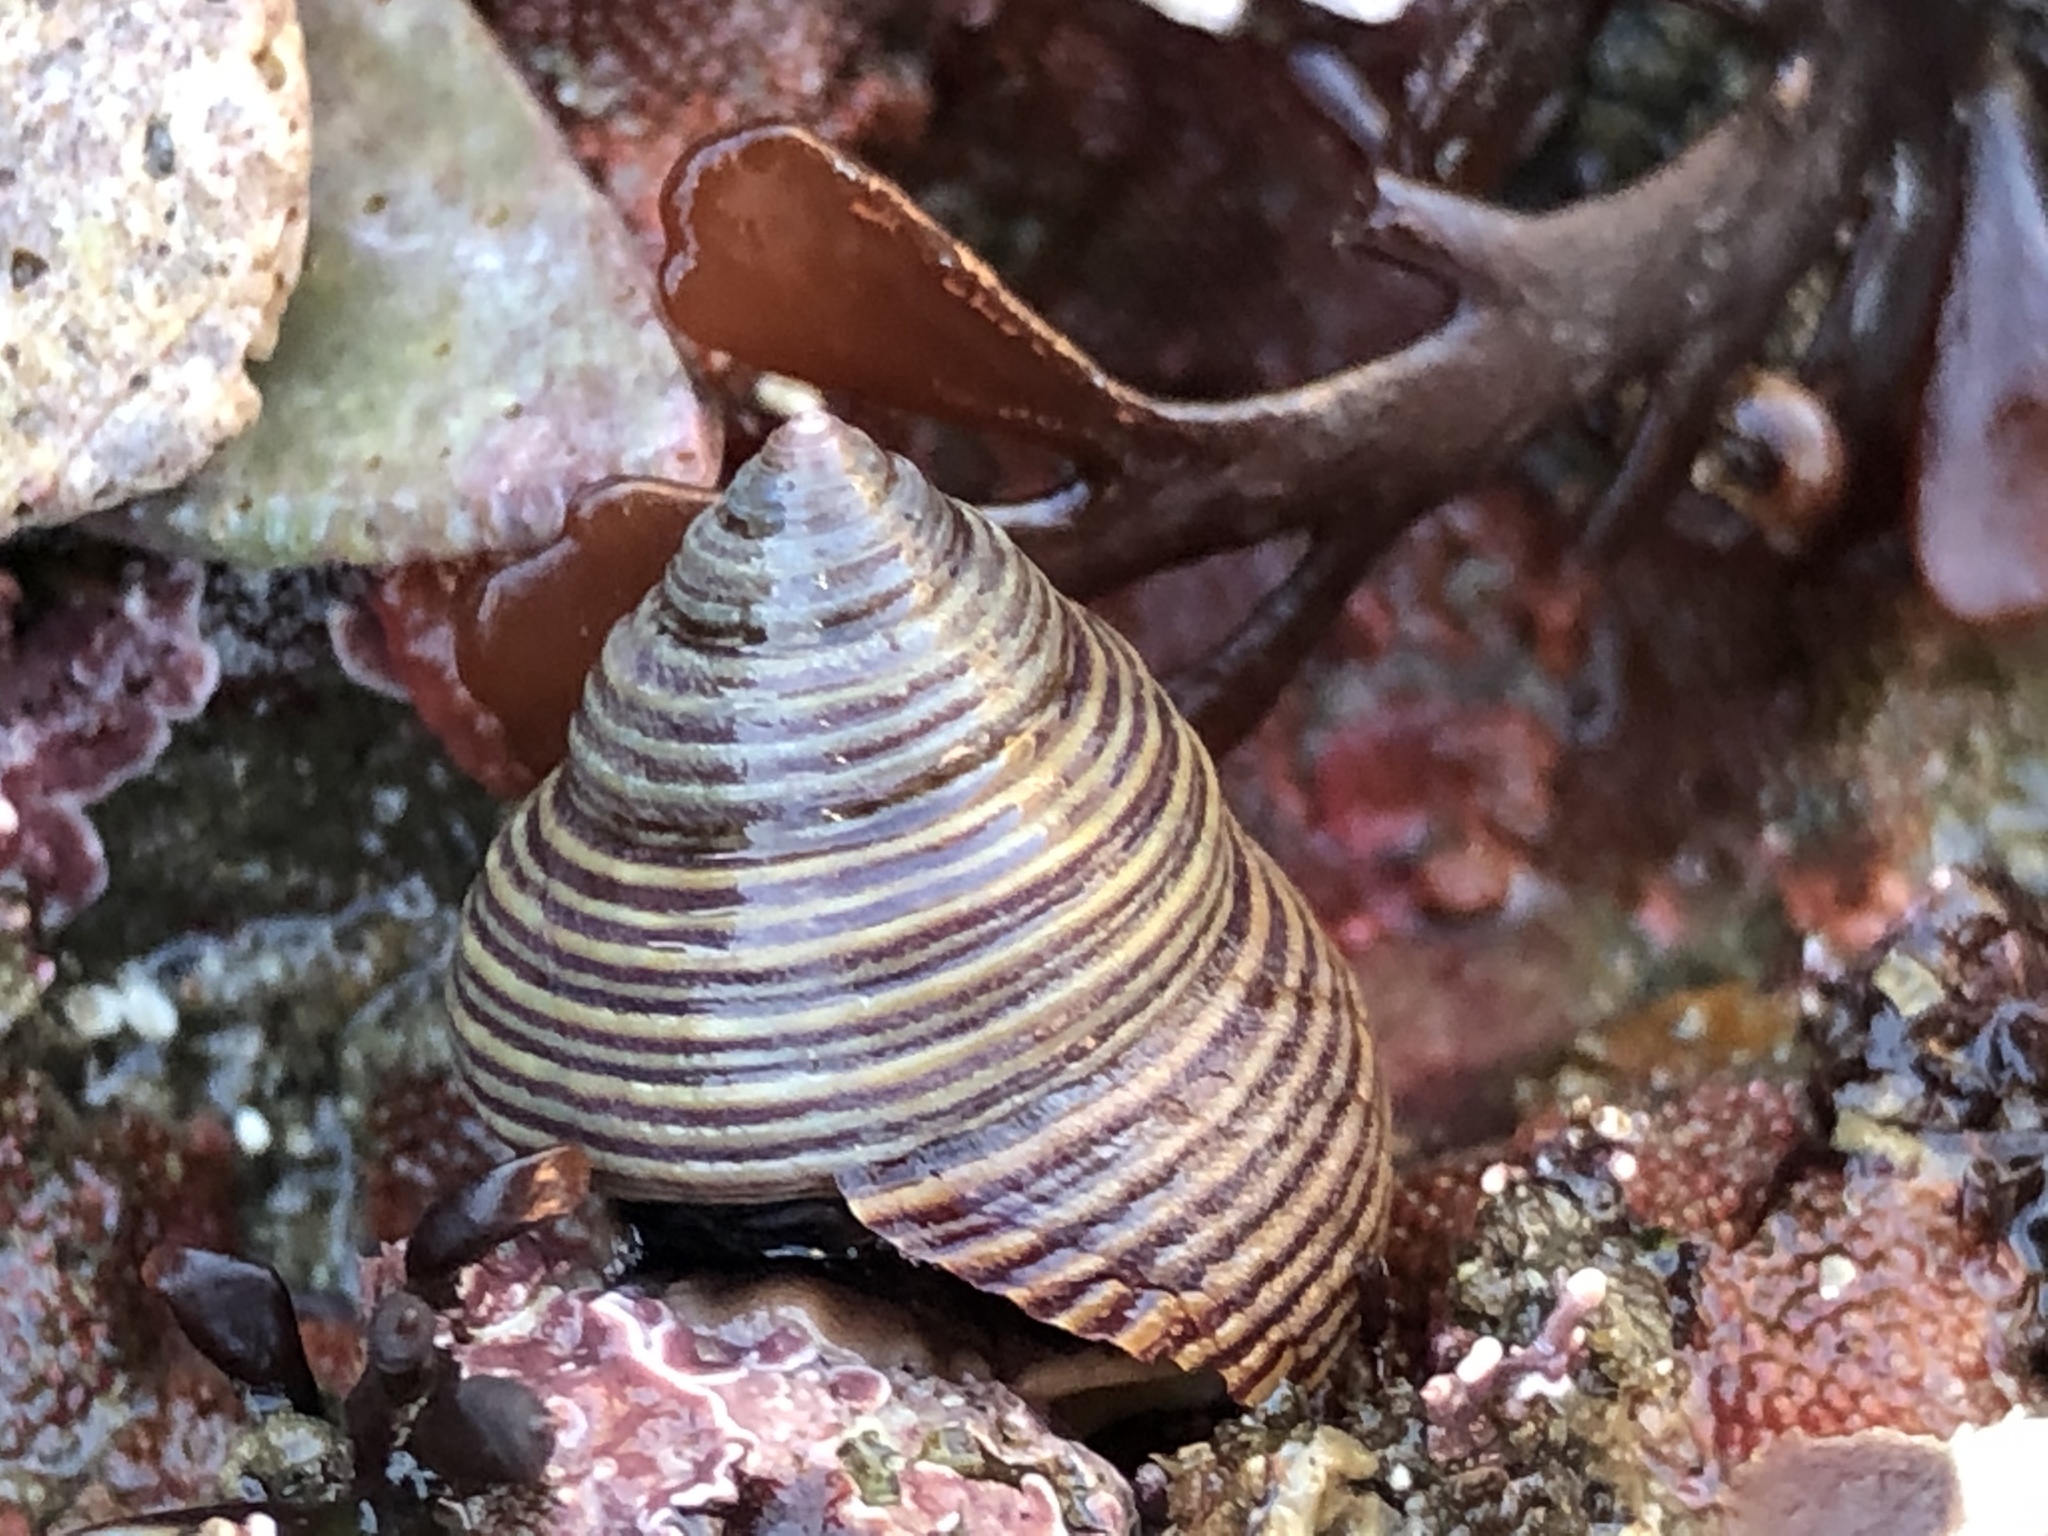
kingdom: Animalia
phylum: Mollusca
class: Gastropoda
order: Trochida
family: Calliostomatidae
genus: Calliostoma
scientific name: Calliostoma canaliculatum
